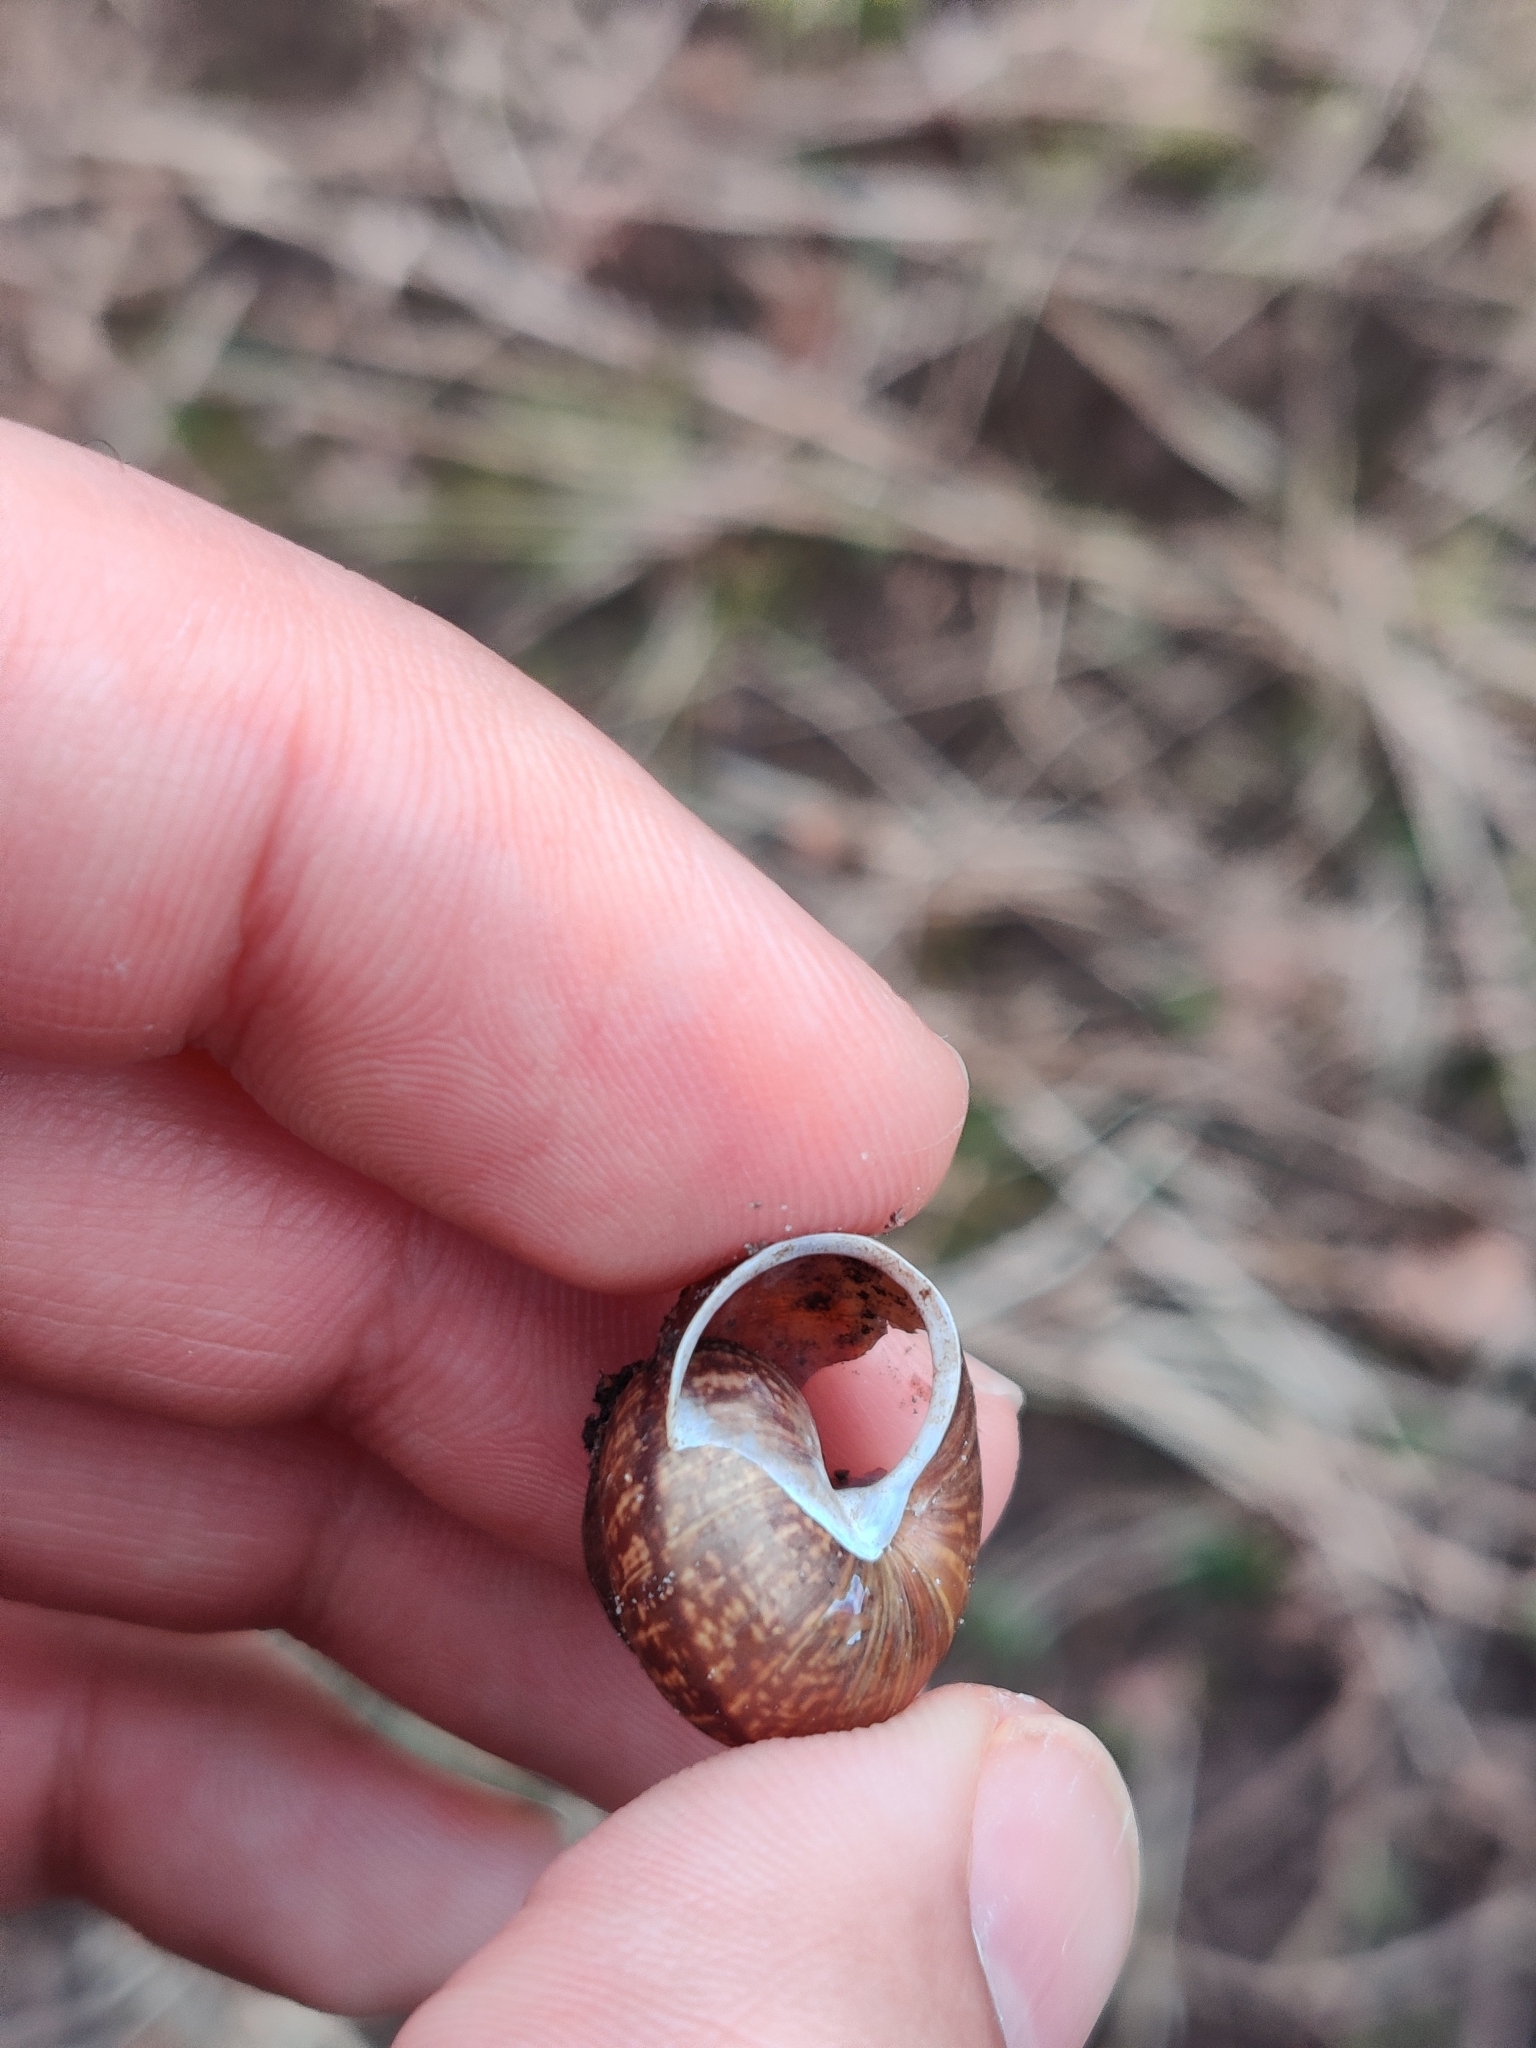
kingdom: Animalia
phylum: Mollusca
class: Gastropoda
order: Stylommatophora
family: Helicidae
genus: Arianta
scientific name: Arianta arbustorum
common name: Copse snail
